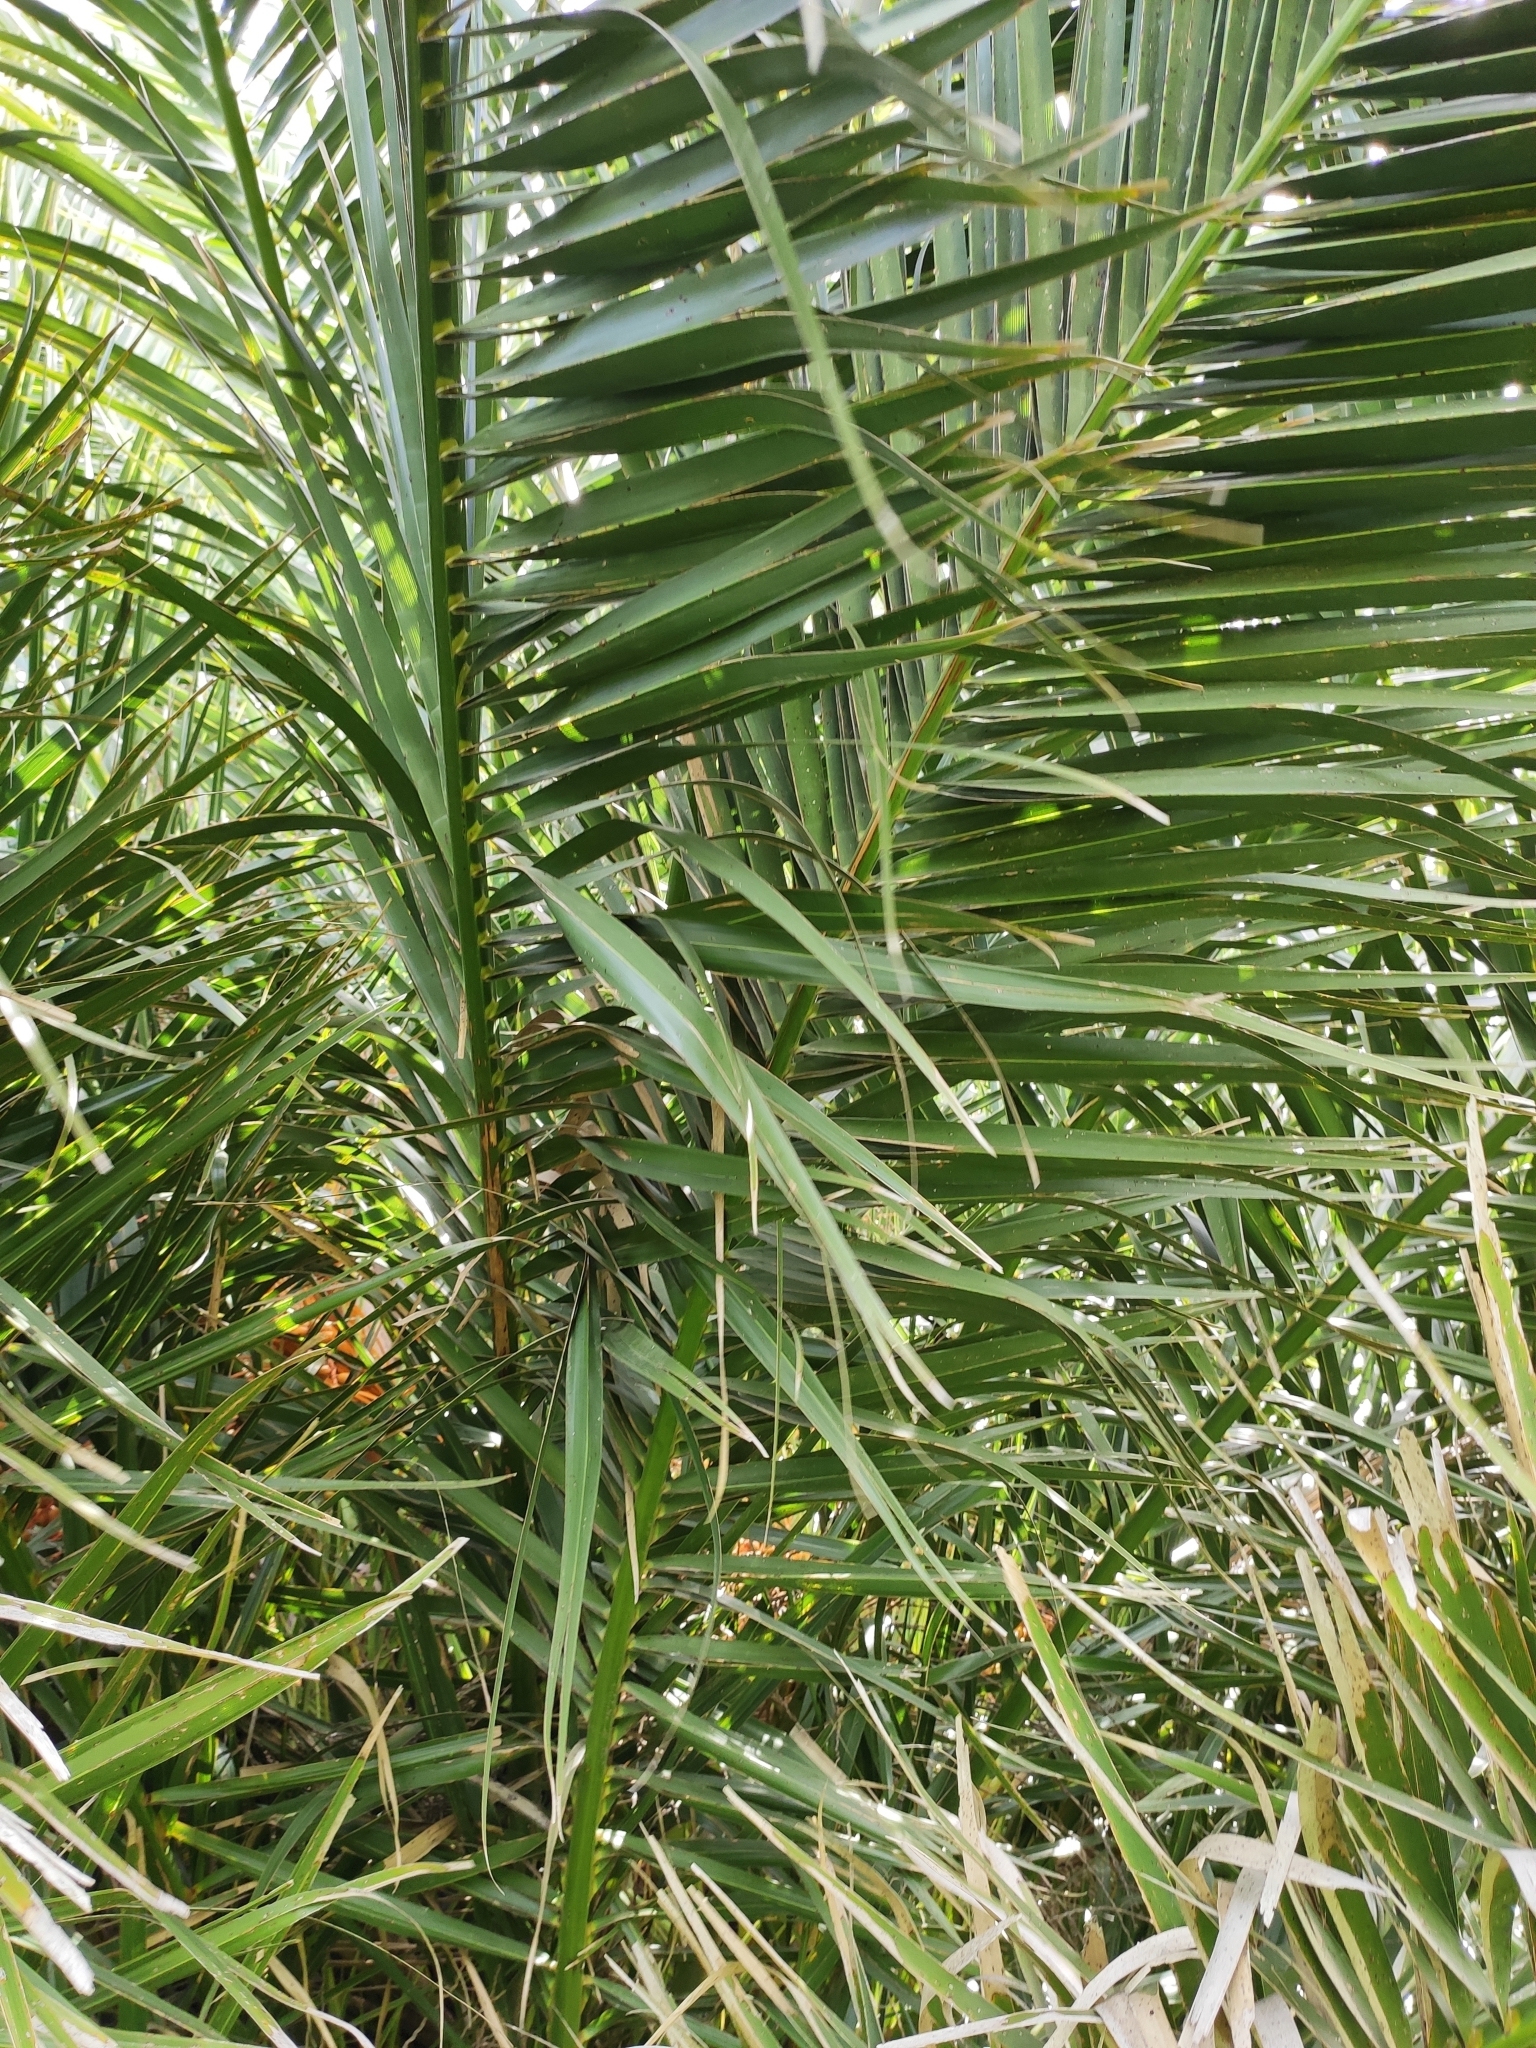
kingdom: Plantae
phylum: Tracheophyta
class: Liliopsida
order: Arecales
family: Arecaceae
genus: Phoenix
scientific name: Phoenix canariensis
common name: Canary island date palm
